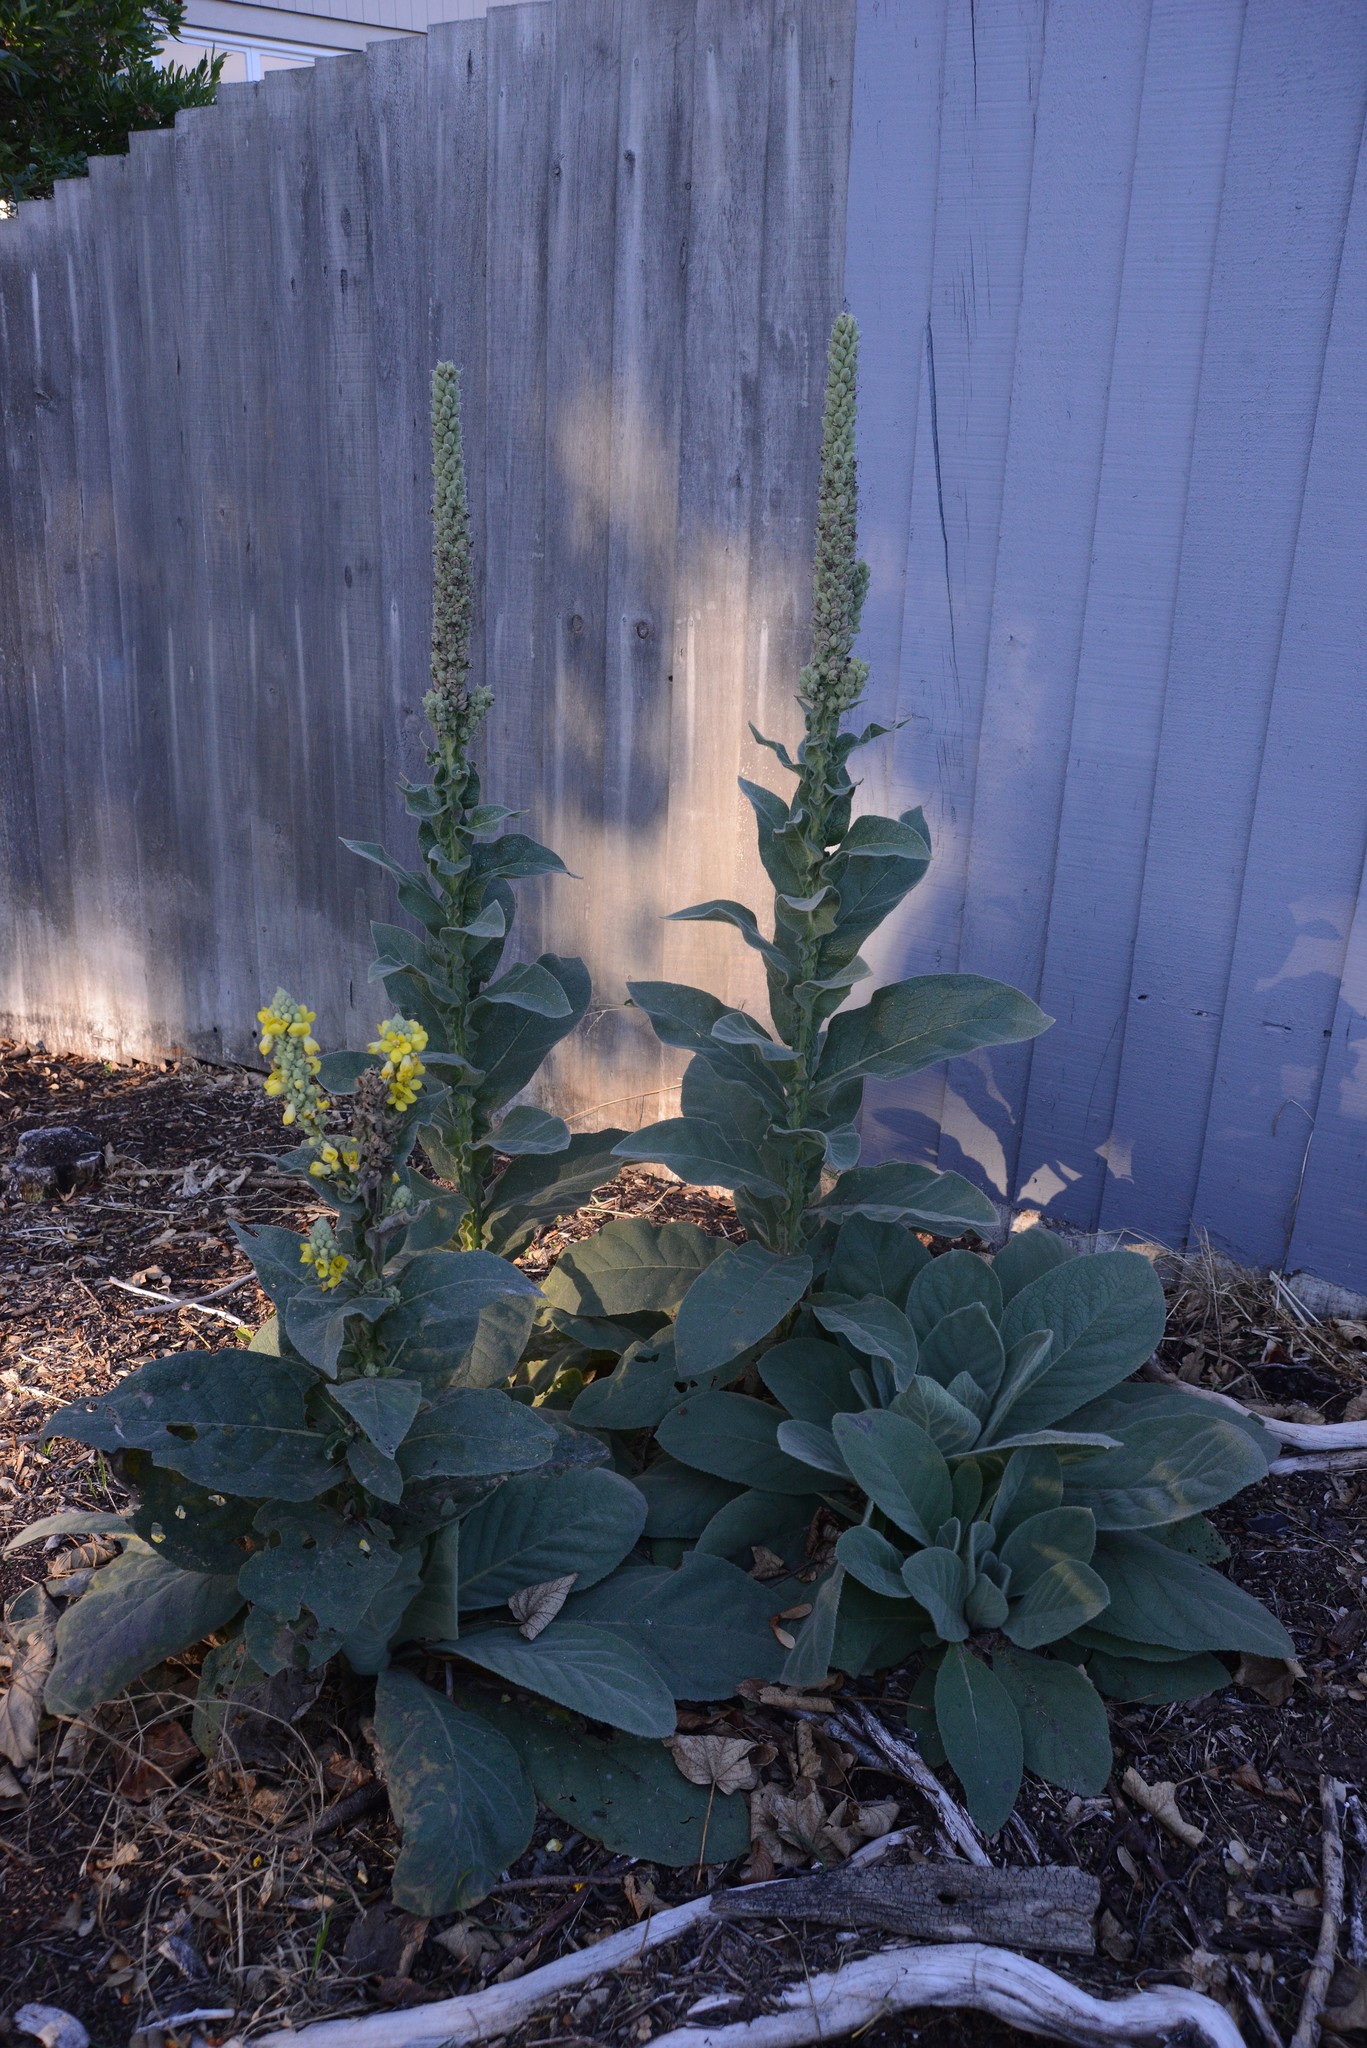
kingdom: Plantae
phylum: Tracheophyta
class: Magnoliopsida
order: Lamiales
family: Scrophulariaceae
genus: Verbascum
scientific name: Verbascum thapsus
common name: Common mullein
